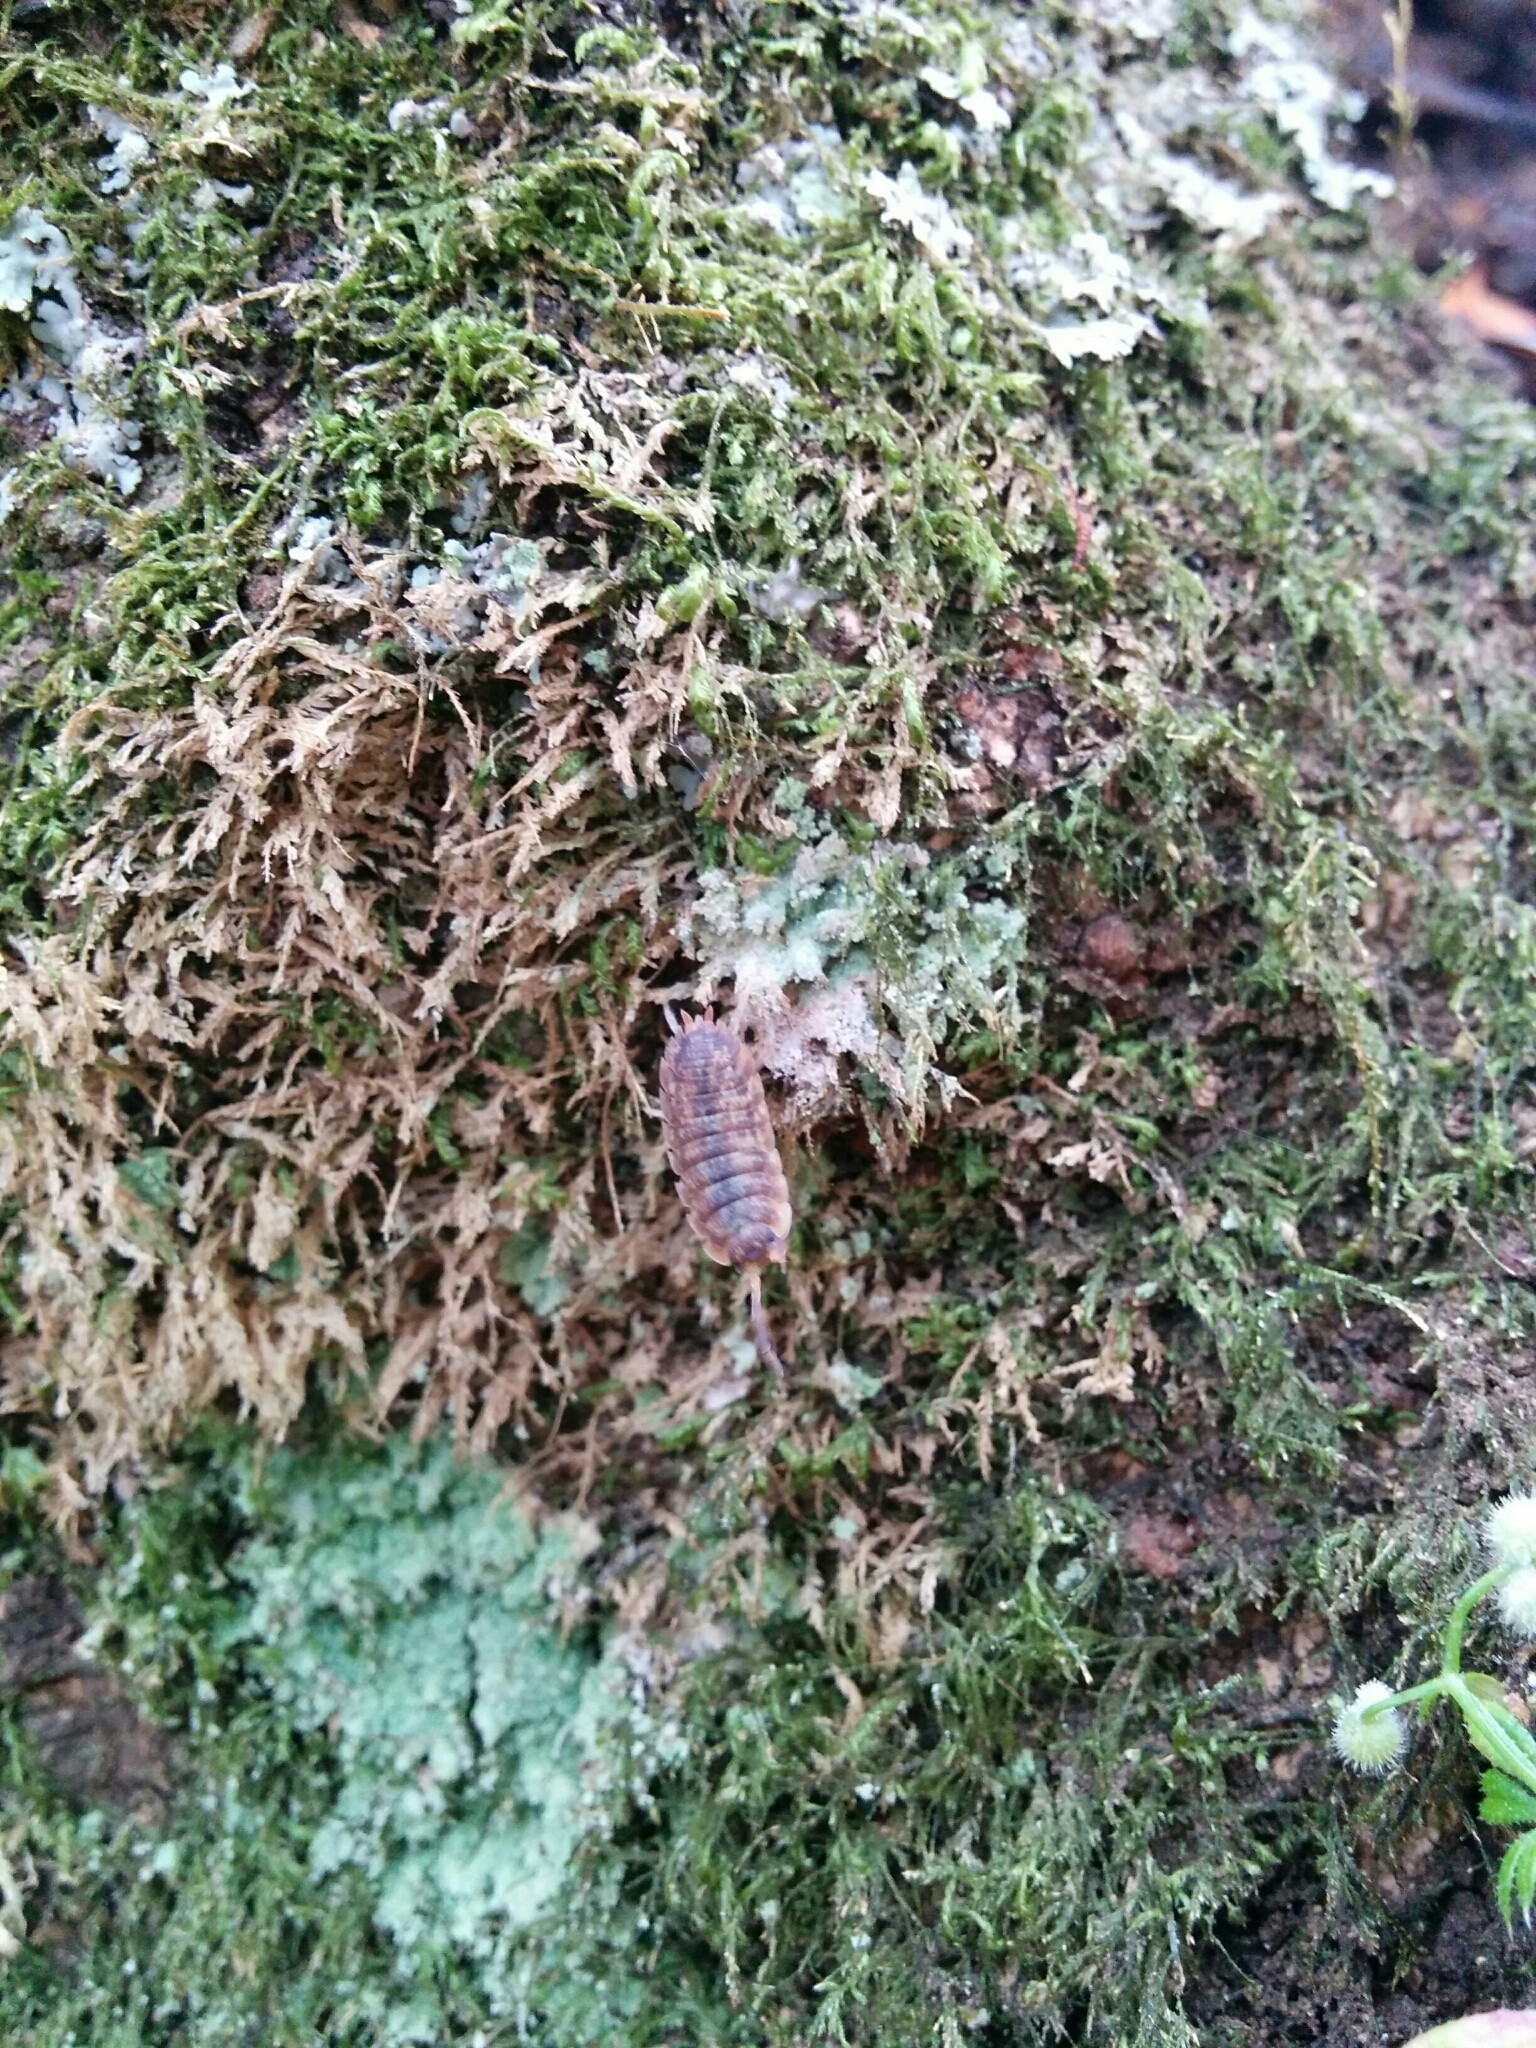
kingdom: Animalia
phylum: Arthropoda
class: Malacostraca
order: Isopoda
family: Porcellionidae
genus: Porcellio
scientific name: Porcellio scaber
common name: Common rough woodlouse
